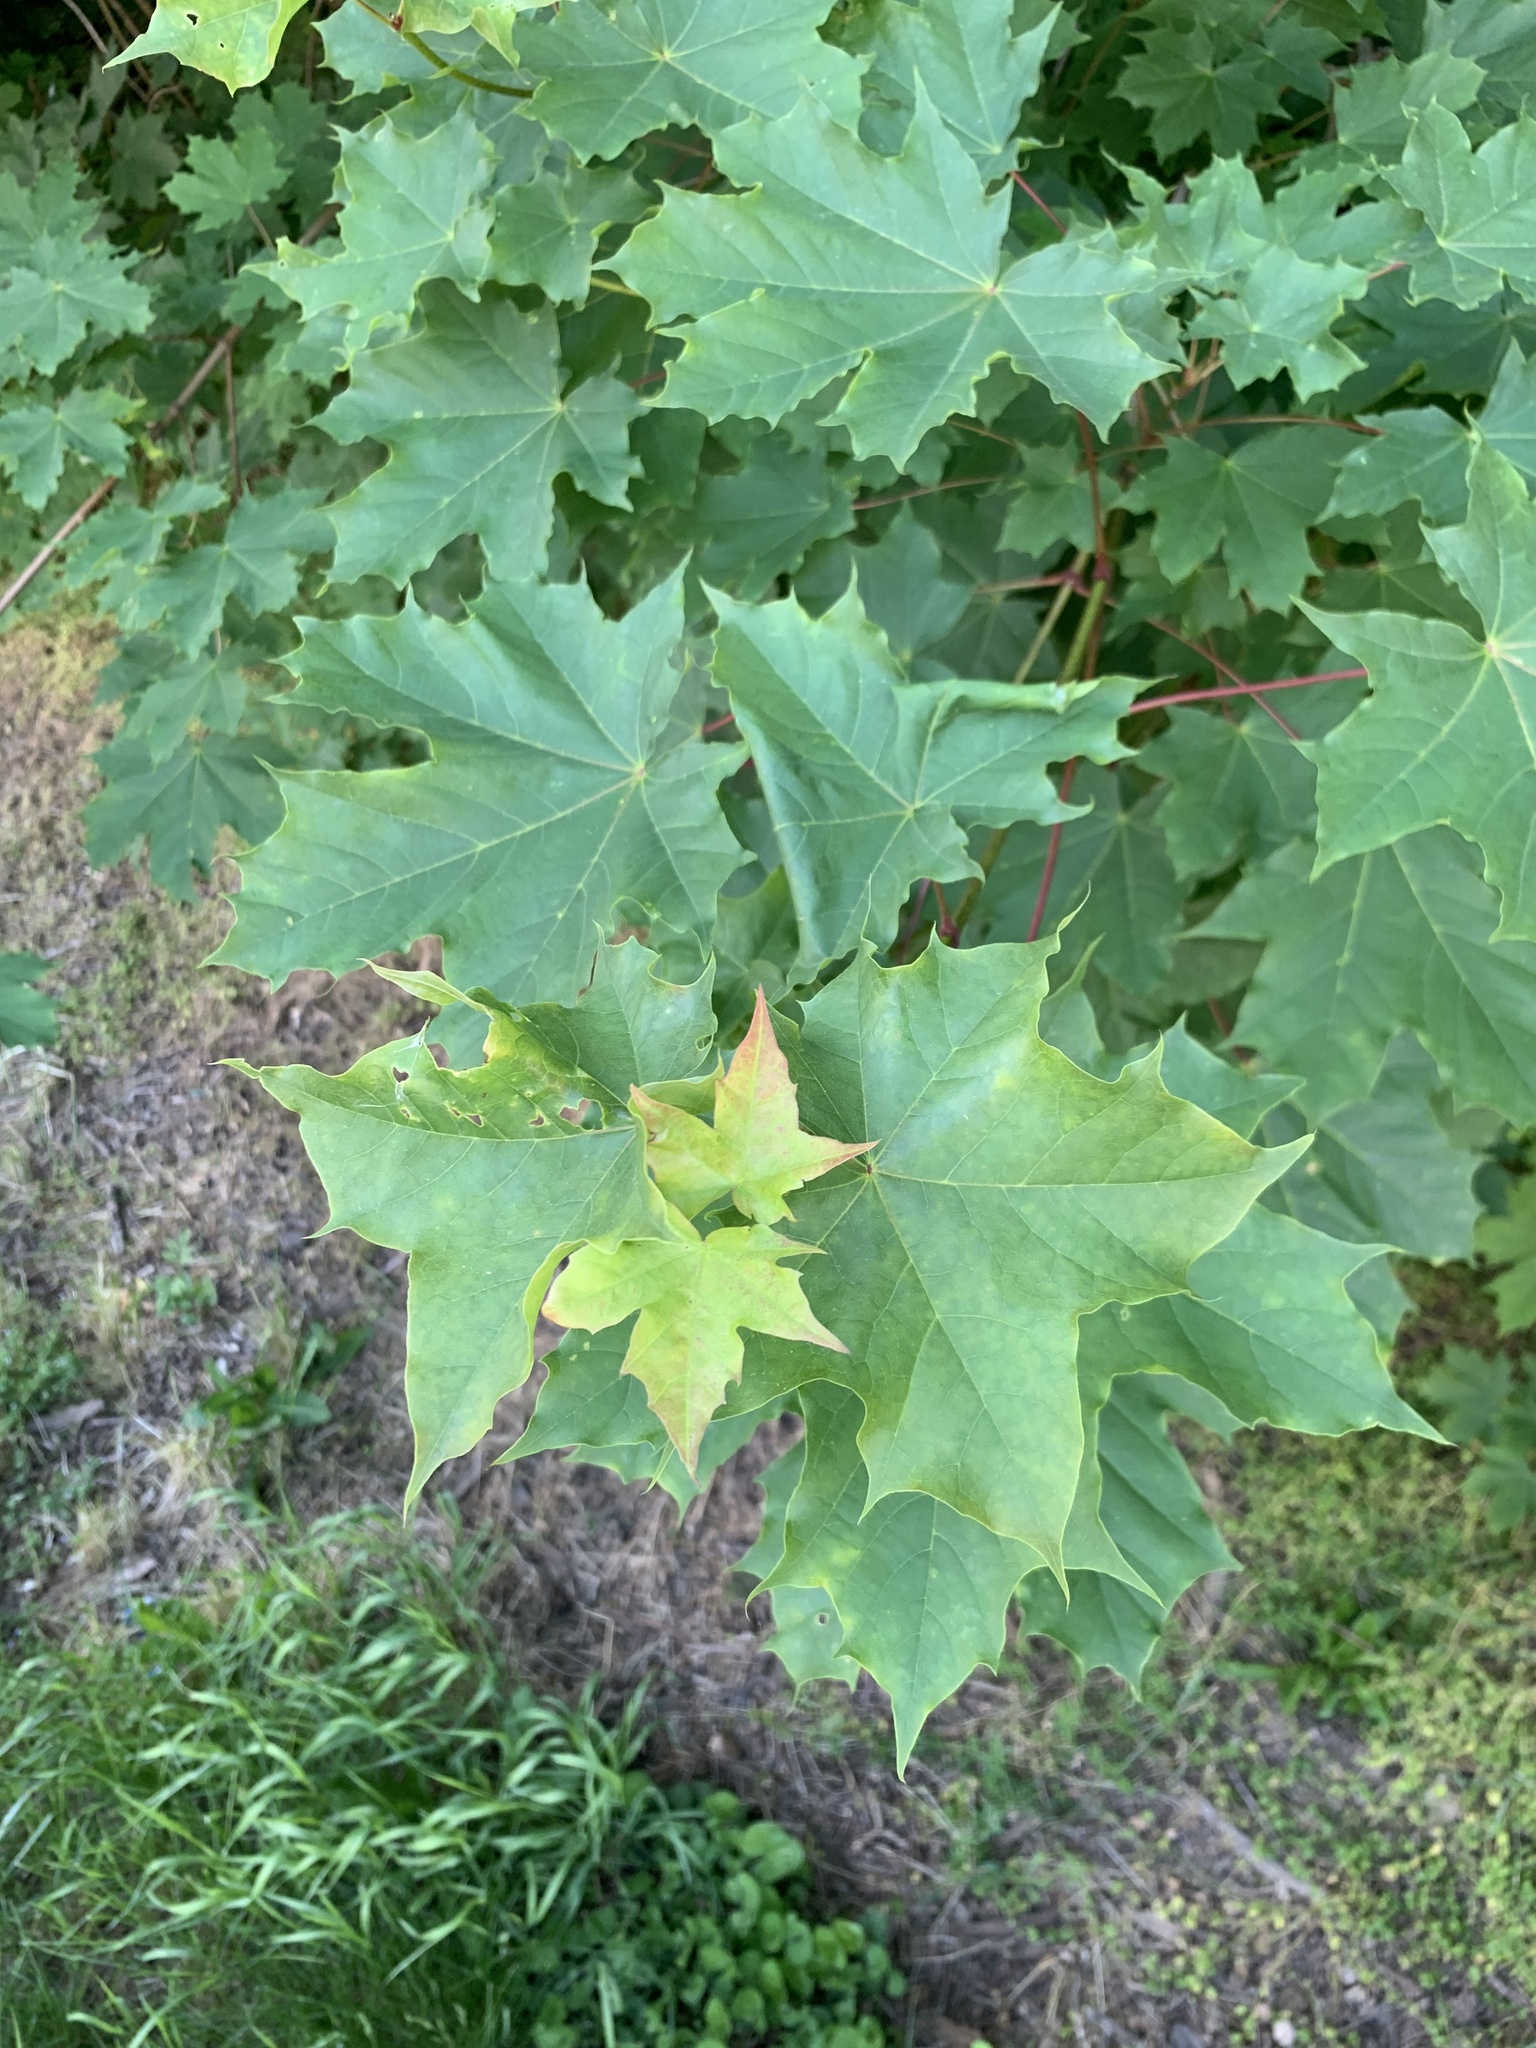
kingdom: Plantae
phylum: Tracheophyta
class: Magnoliopsida
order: Sapindales
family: Sapindaceae
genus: Acer
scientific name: Acer platanoides
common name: Norway maple
